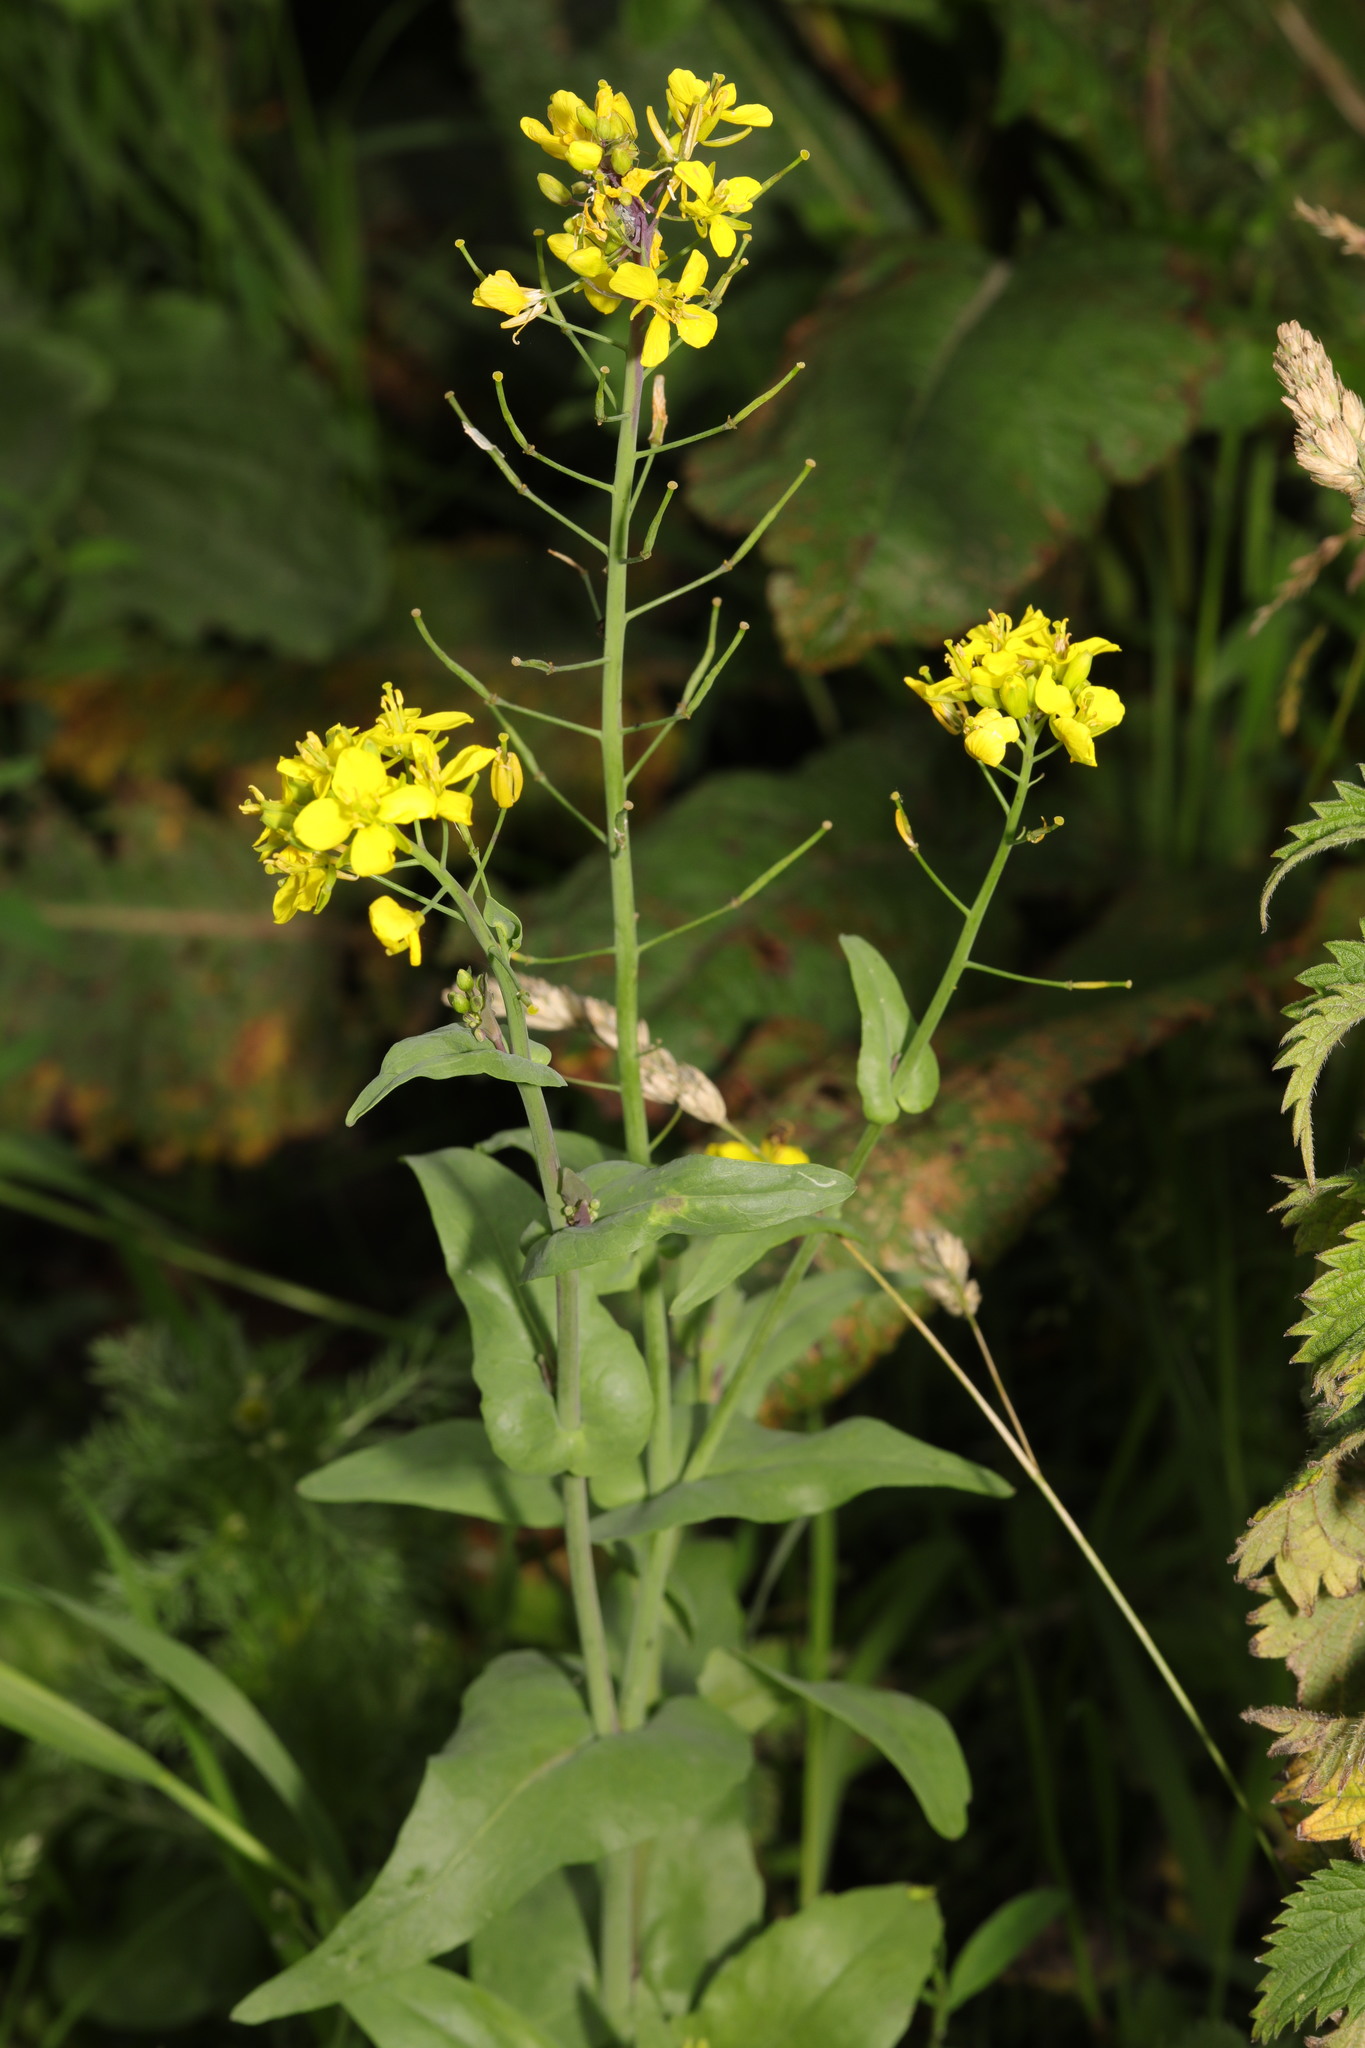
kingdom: Plantae
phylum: Tracheophyta
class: Magnoliopsida
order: Brassicales
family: Brassicaceae
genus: Brassica
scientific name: Brassica rapa
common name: Field mustard
